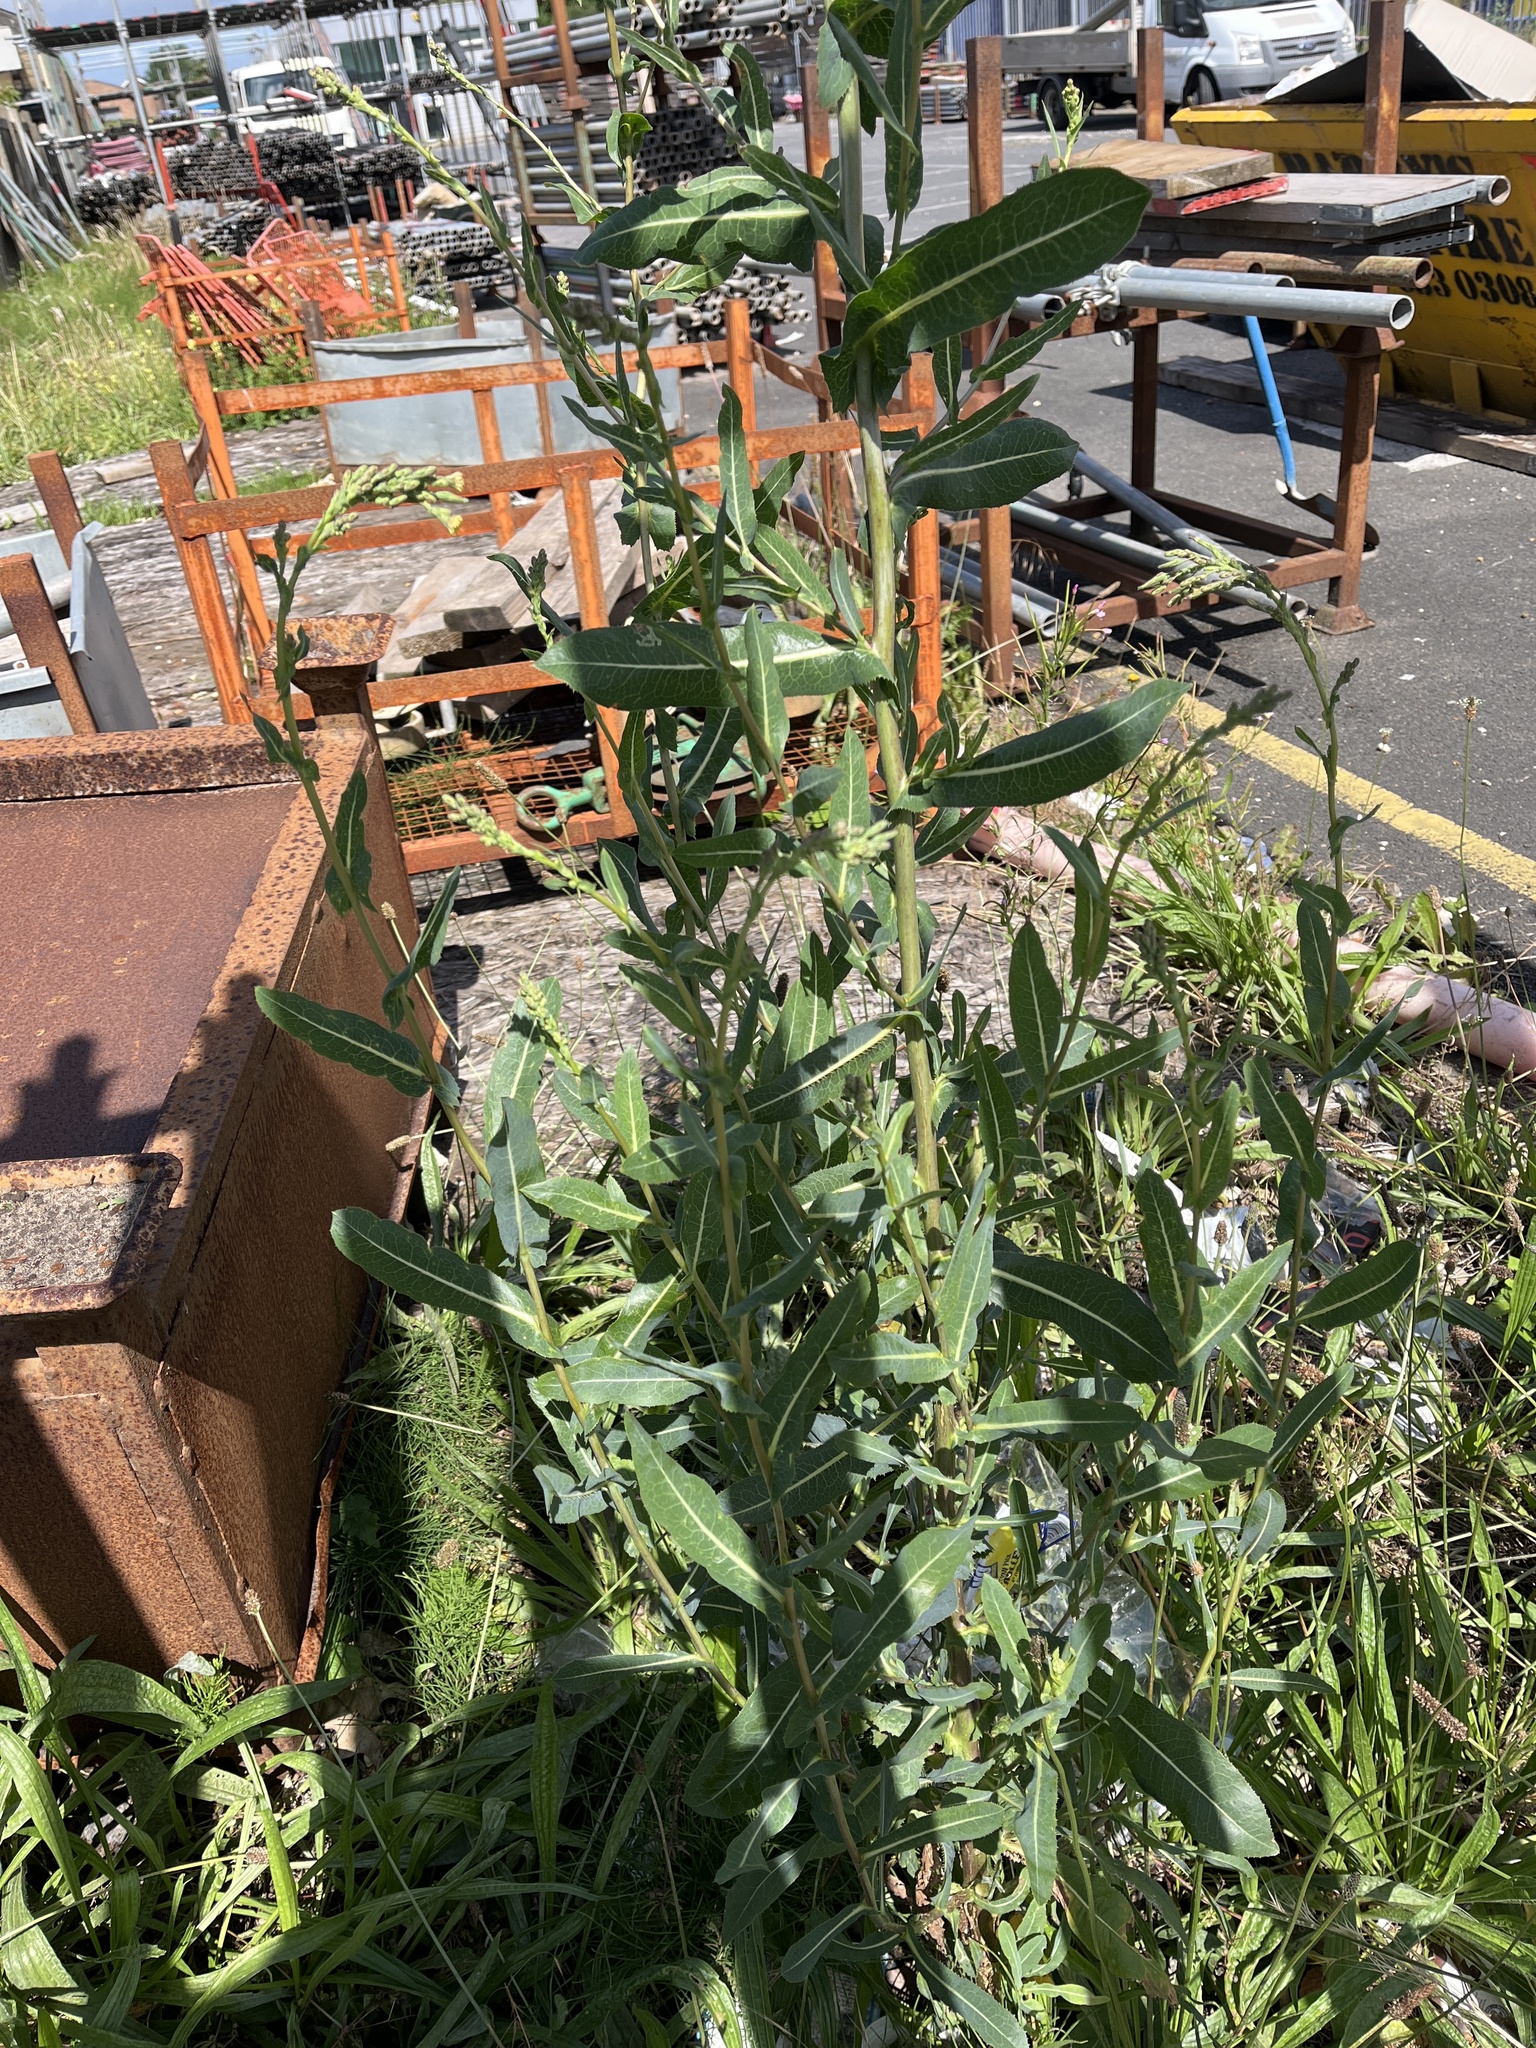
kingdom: Plantae
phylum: Tracheophyta
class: Magnoliopsida
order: Asterales
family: Asteraceae
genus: Lactuca
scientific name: Lactuca serriola
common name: Prickly lettuce
